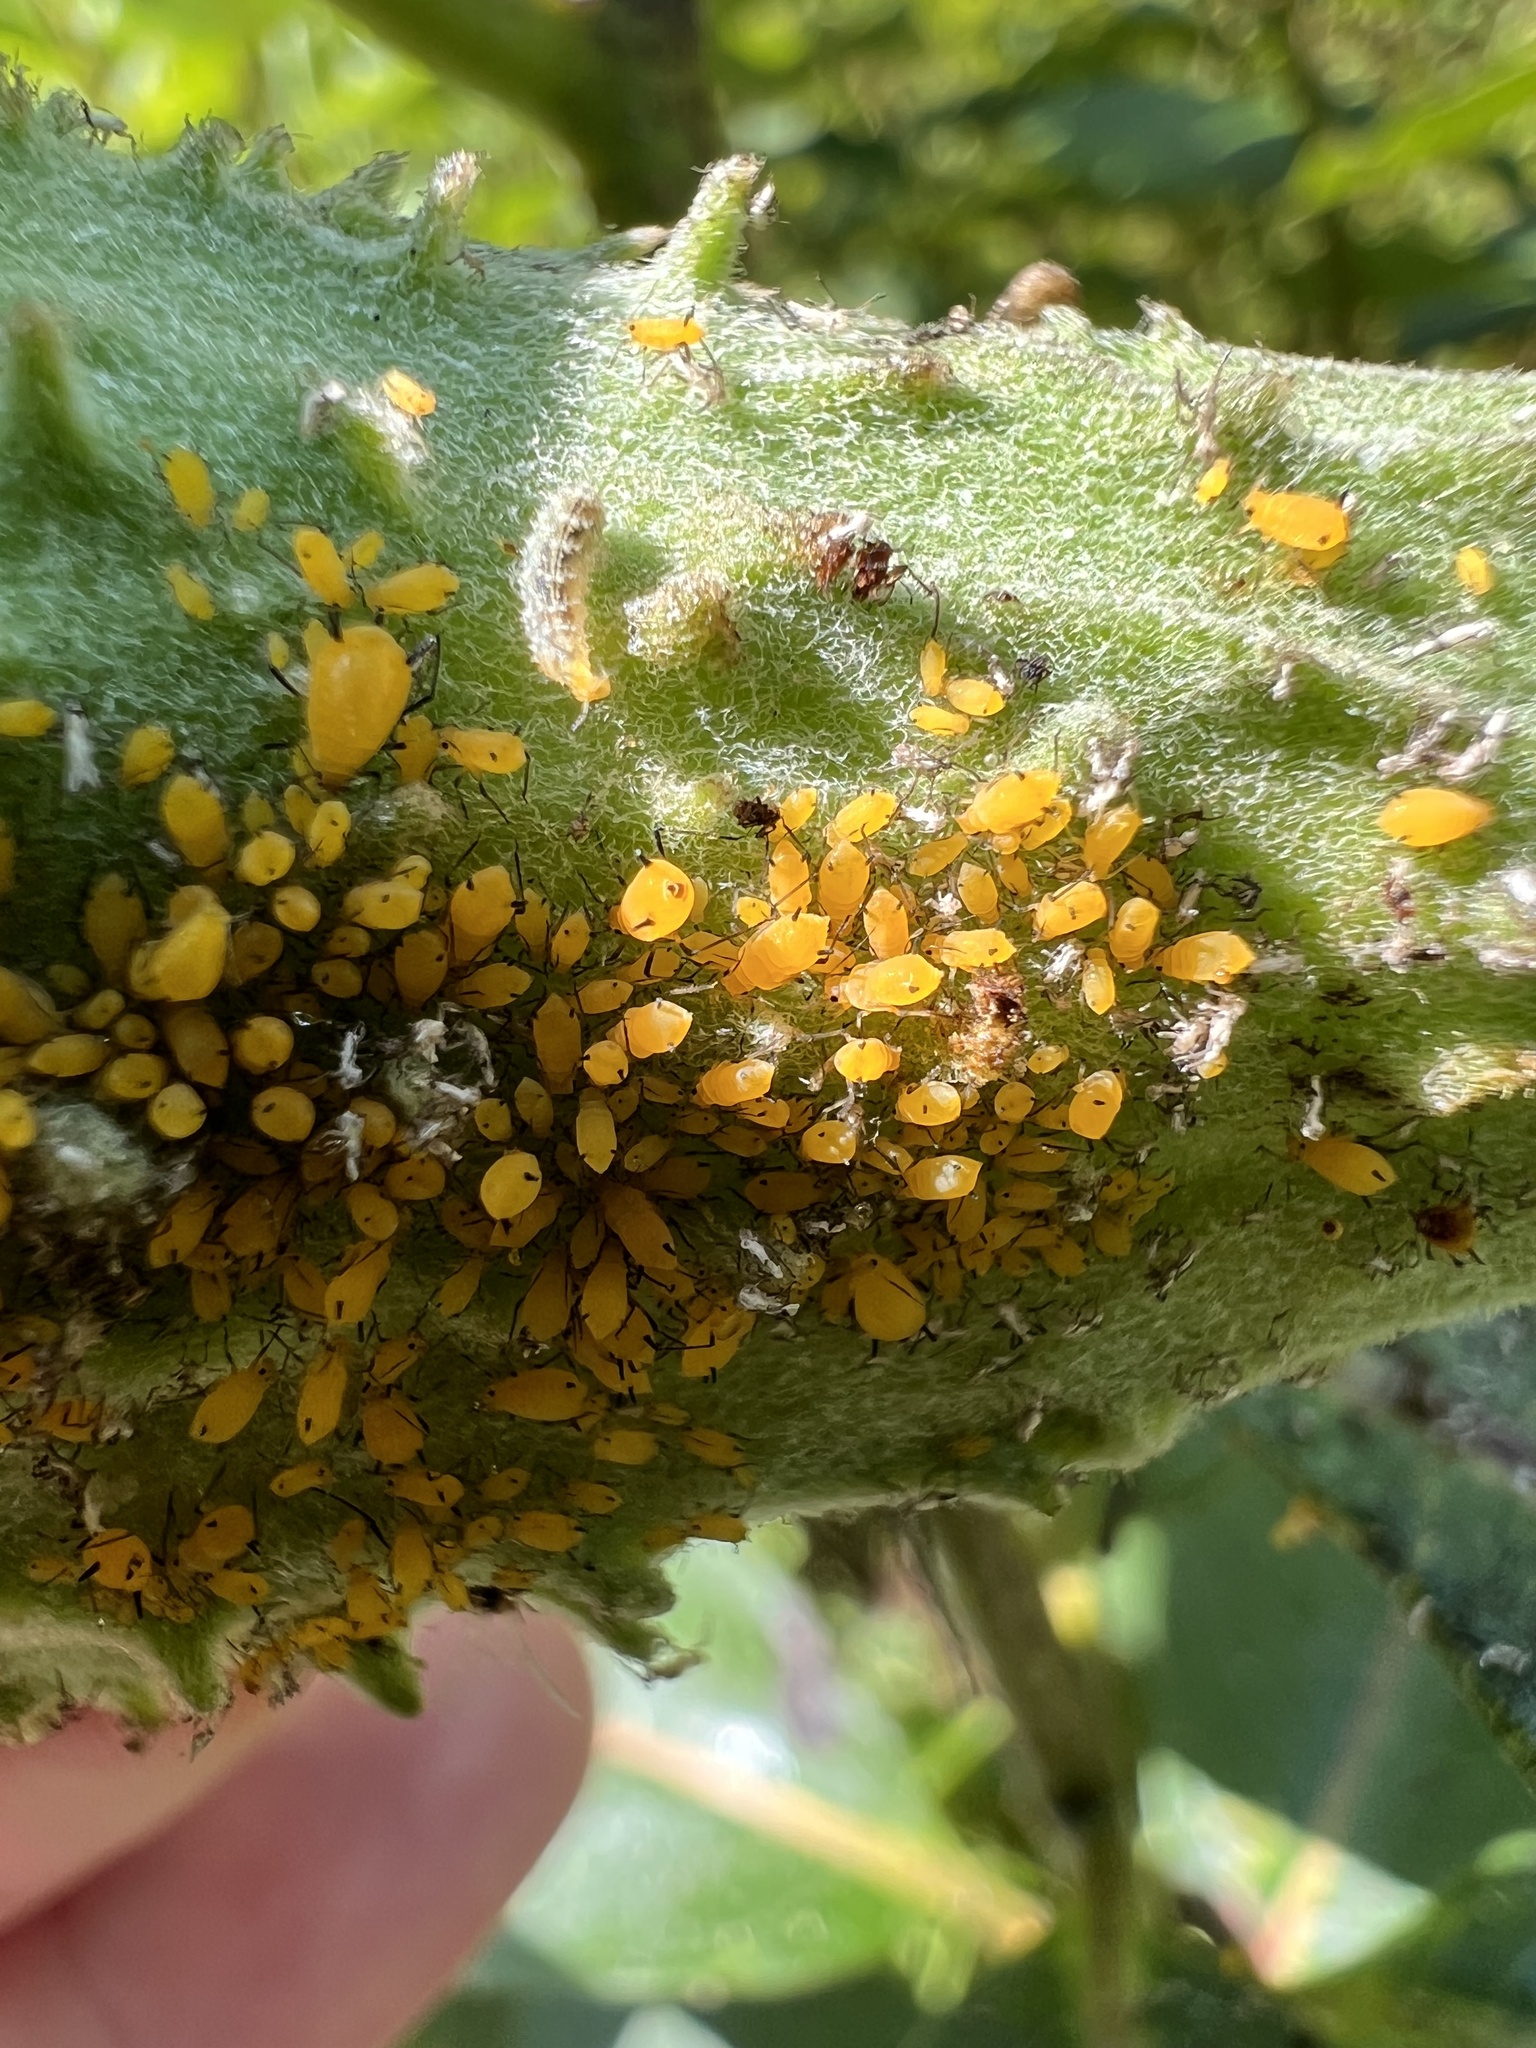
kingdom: Animalia
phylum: Arthropoda
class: Insecta
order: Hemiptera
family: Aphididae
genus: Aphis
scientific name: Aphis nerii
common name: Oleander aphid
